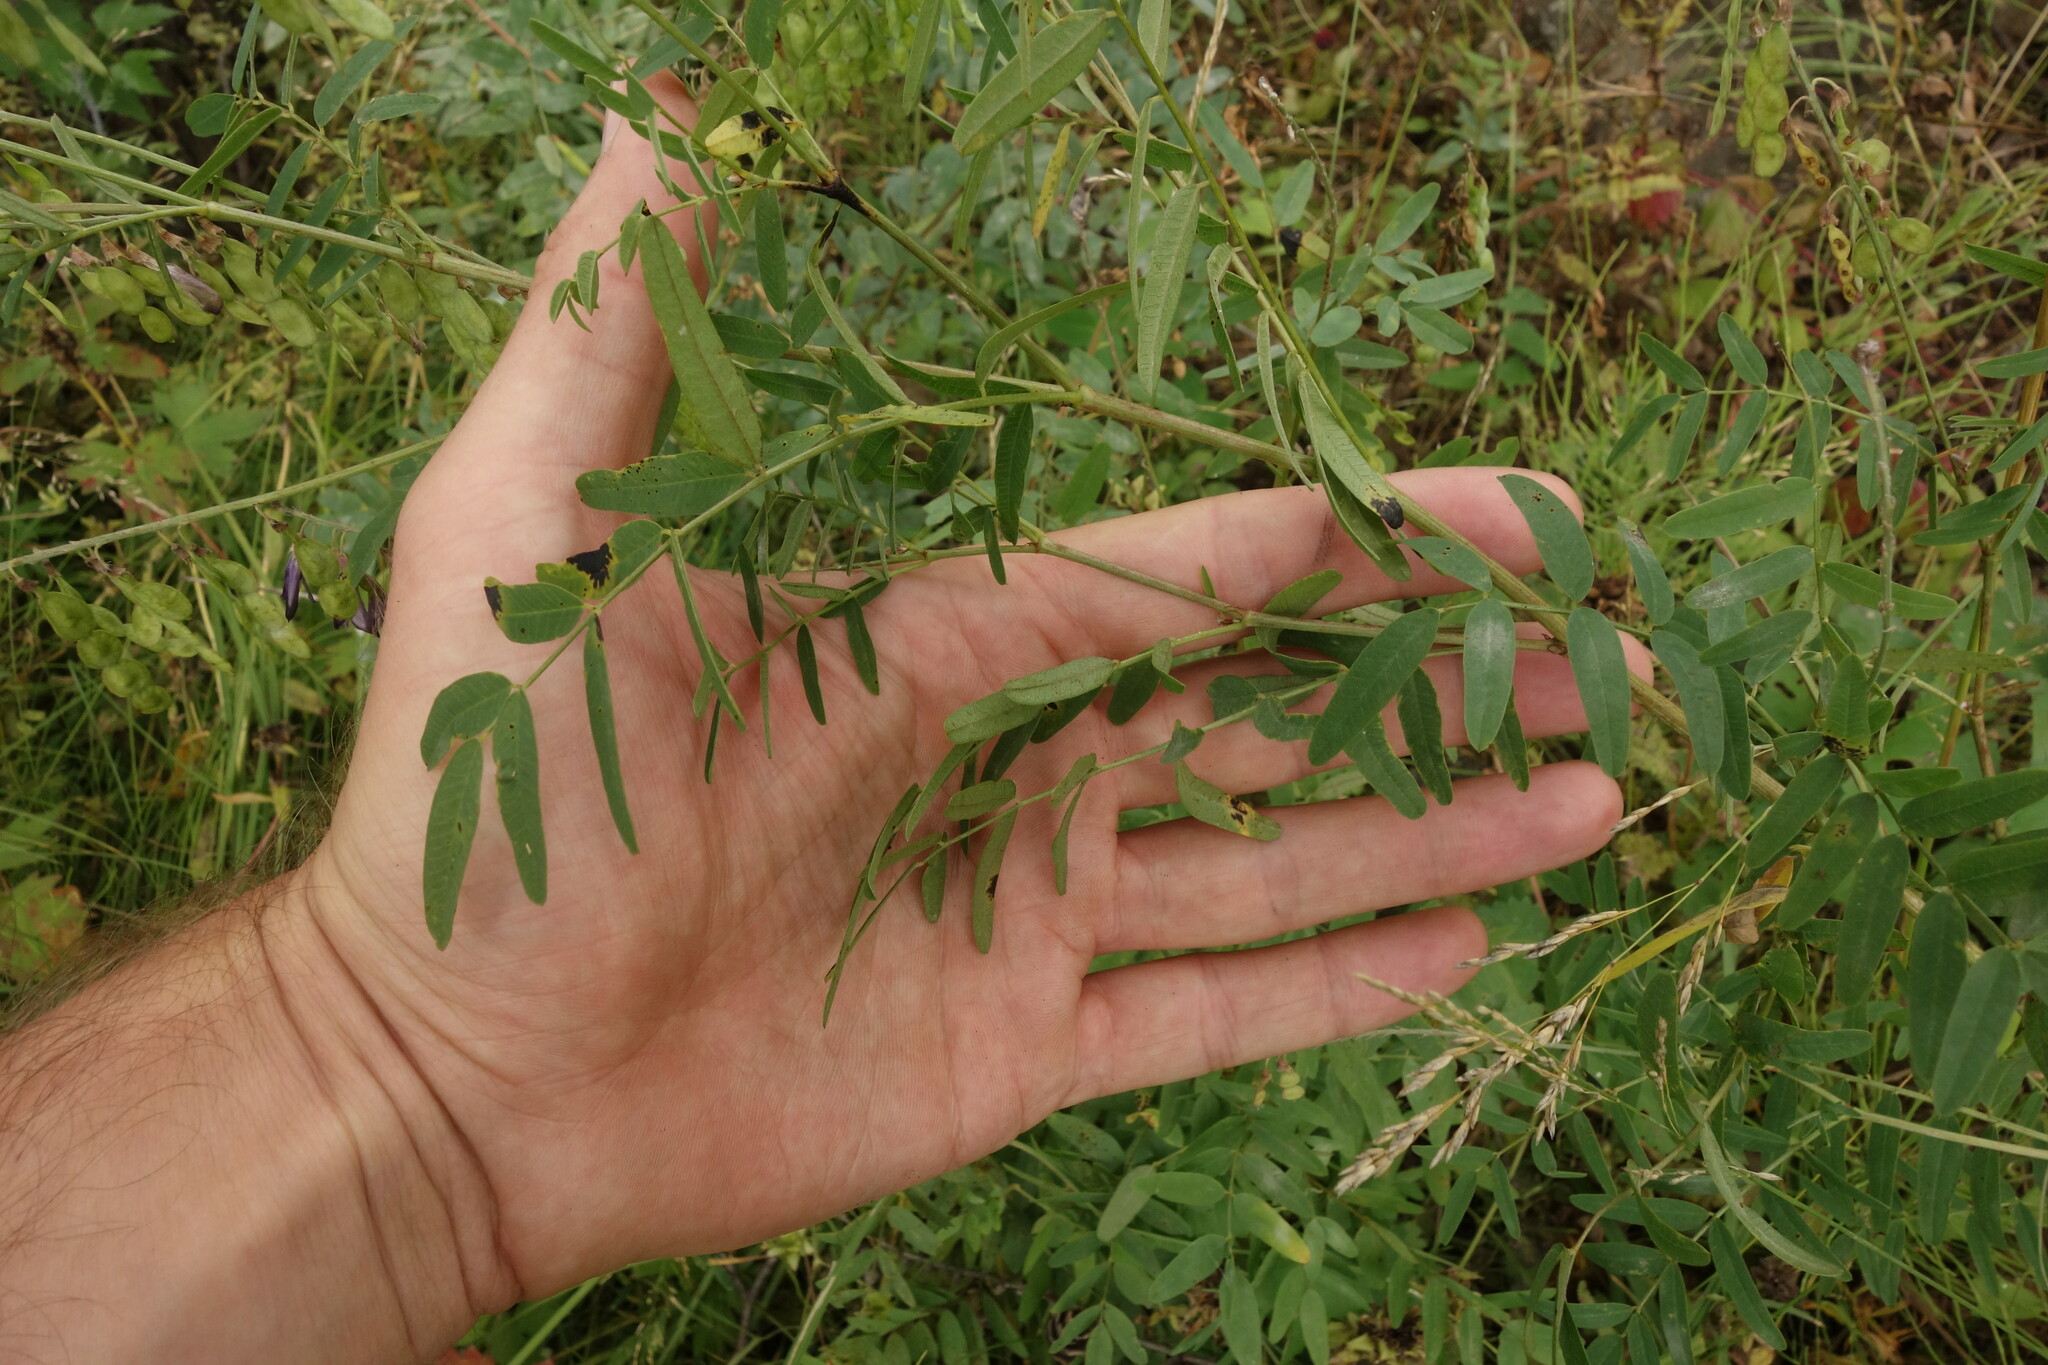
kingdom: Plantae
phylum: Tracheophyta
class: Magnoliopsida
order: Fabales
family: Fabaceae
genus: Hedysarum
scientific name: Hedysarum alpinum
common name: Alpine sweet-vetch
